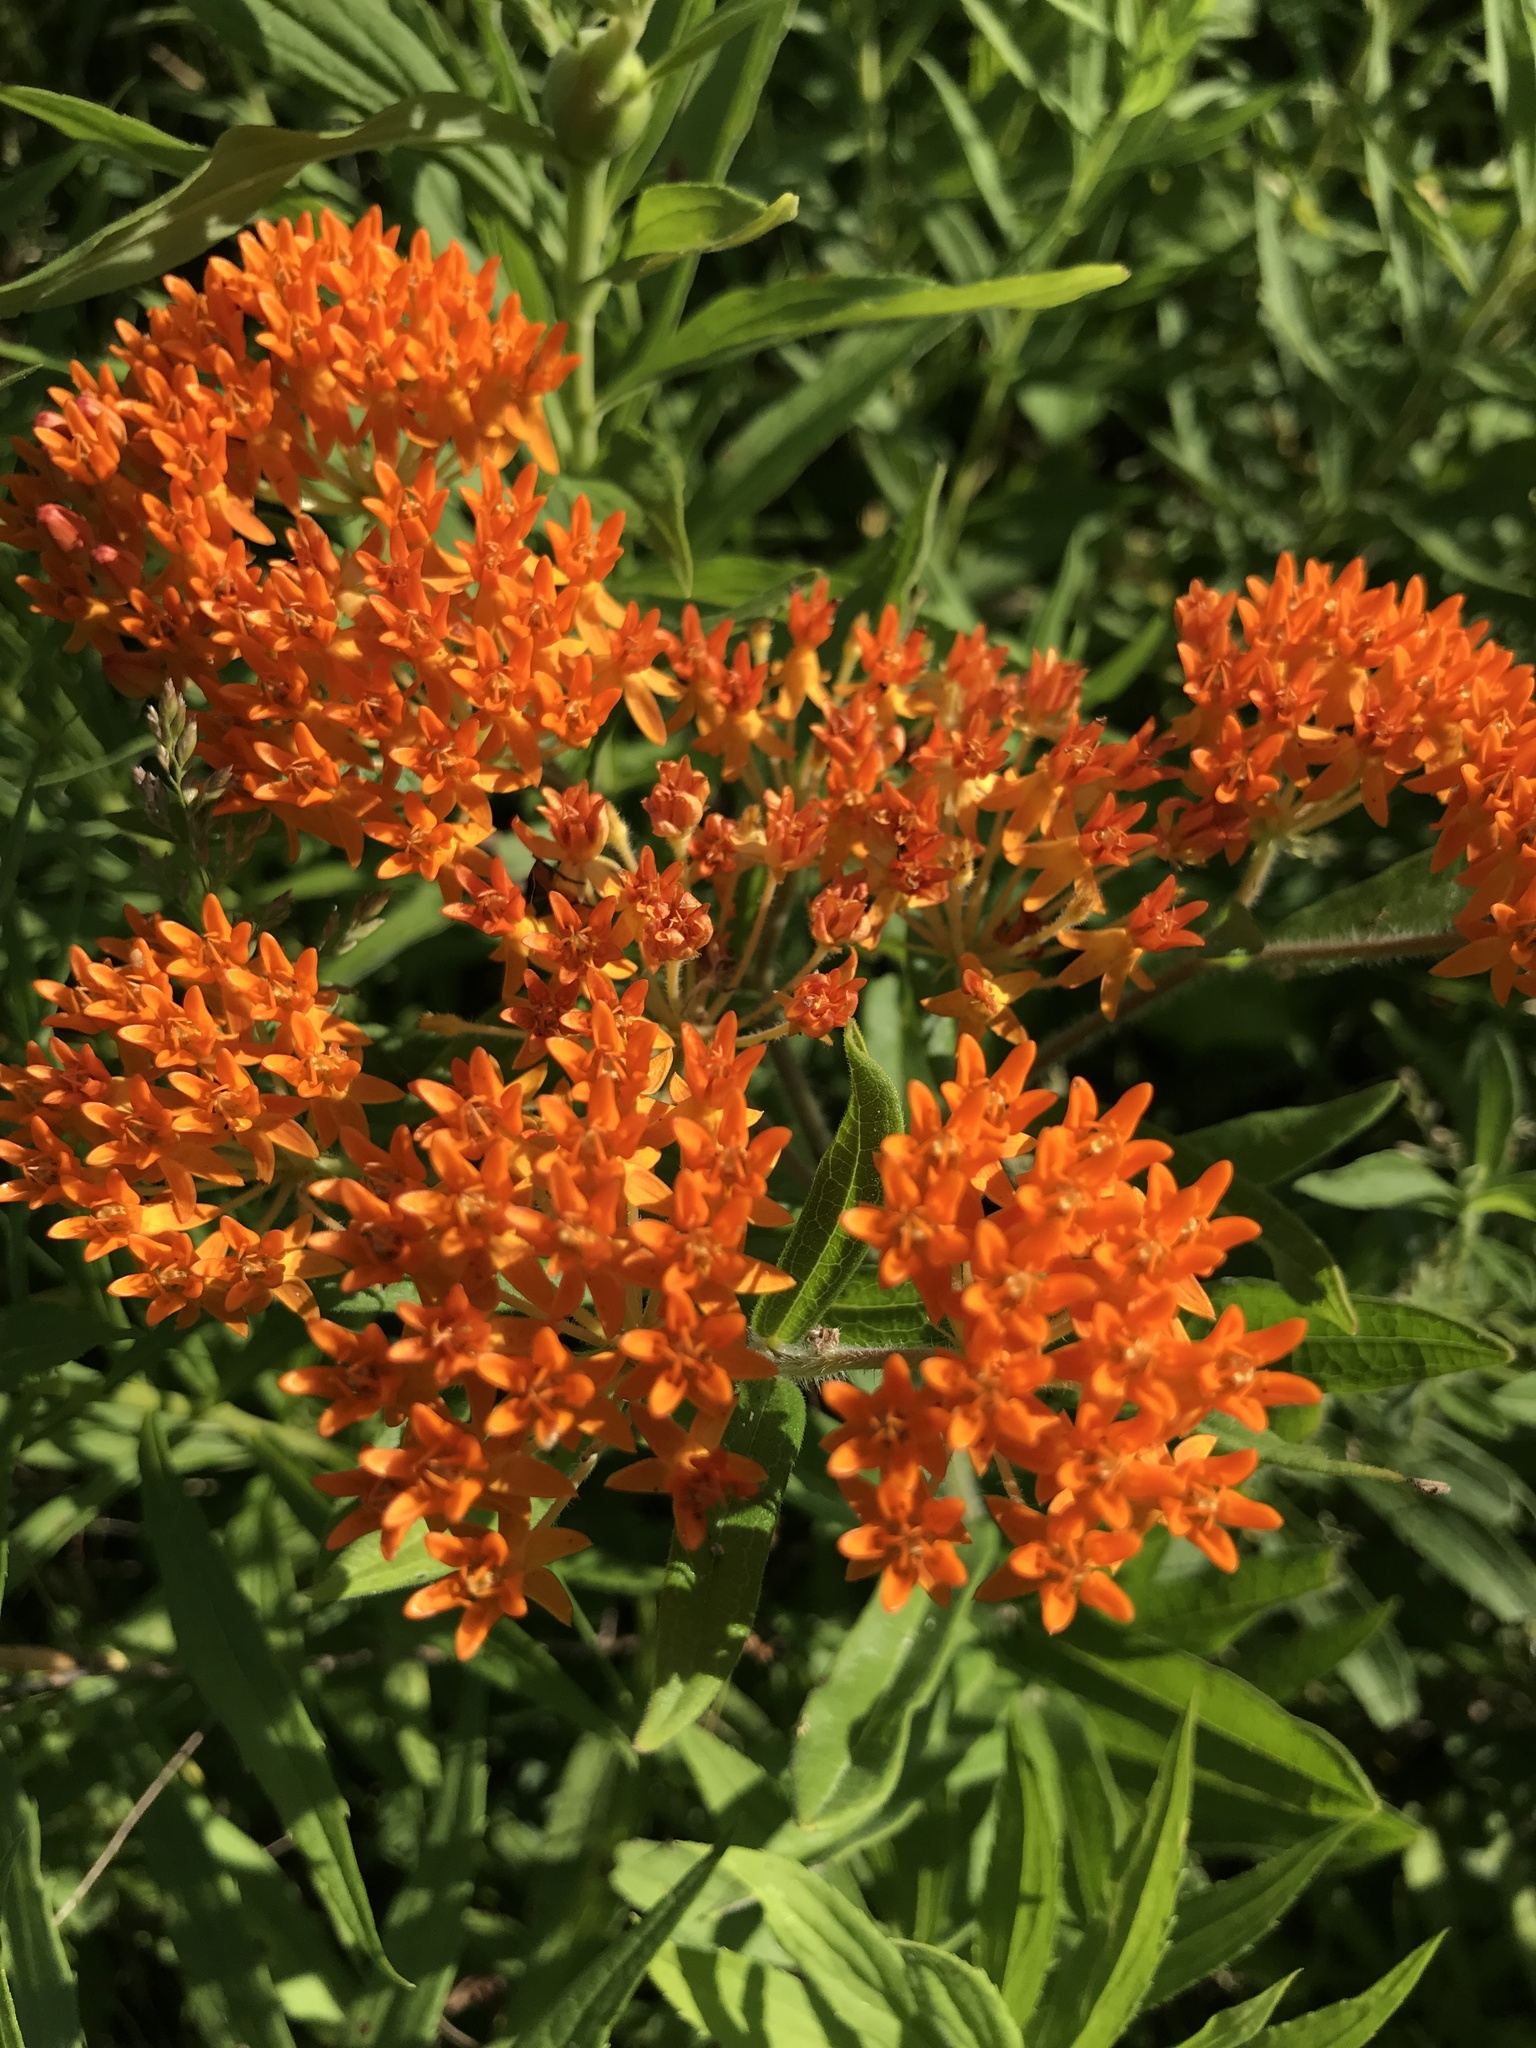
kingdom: Plantae
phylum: Tracheophyta
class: Magnoliopsida
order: Gentianales
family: Apocynaceae
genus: Asclepias
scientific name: Asclepias tuberosa
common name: Butterfly milkweed
